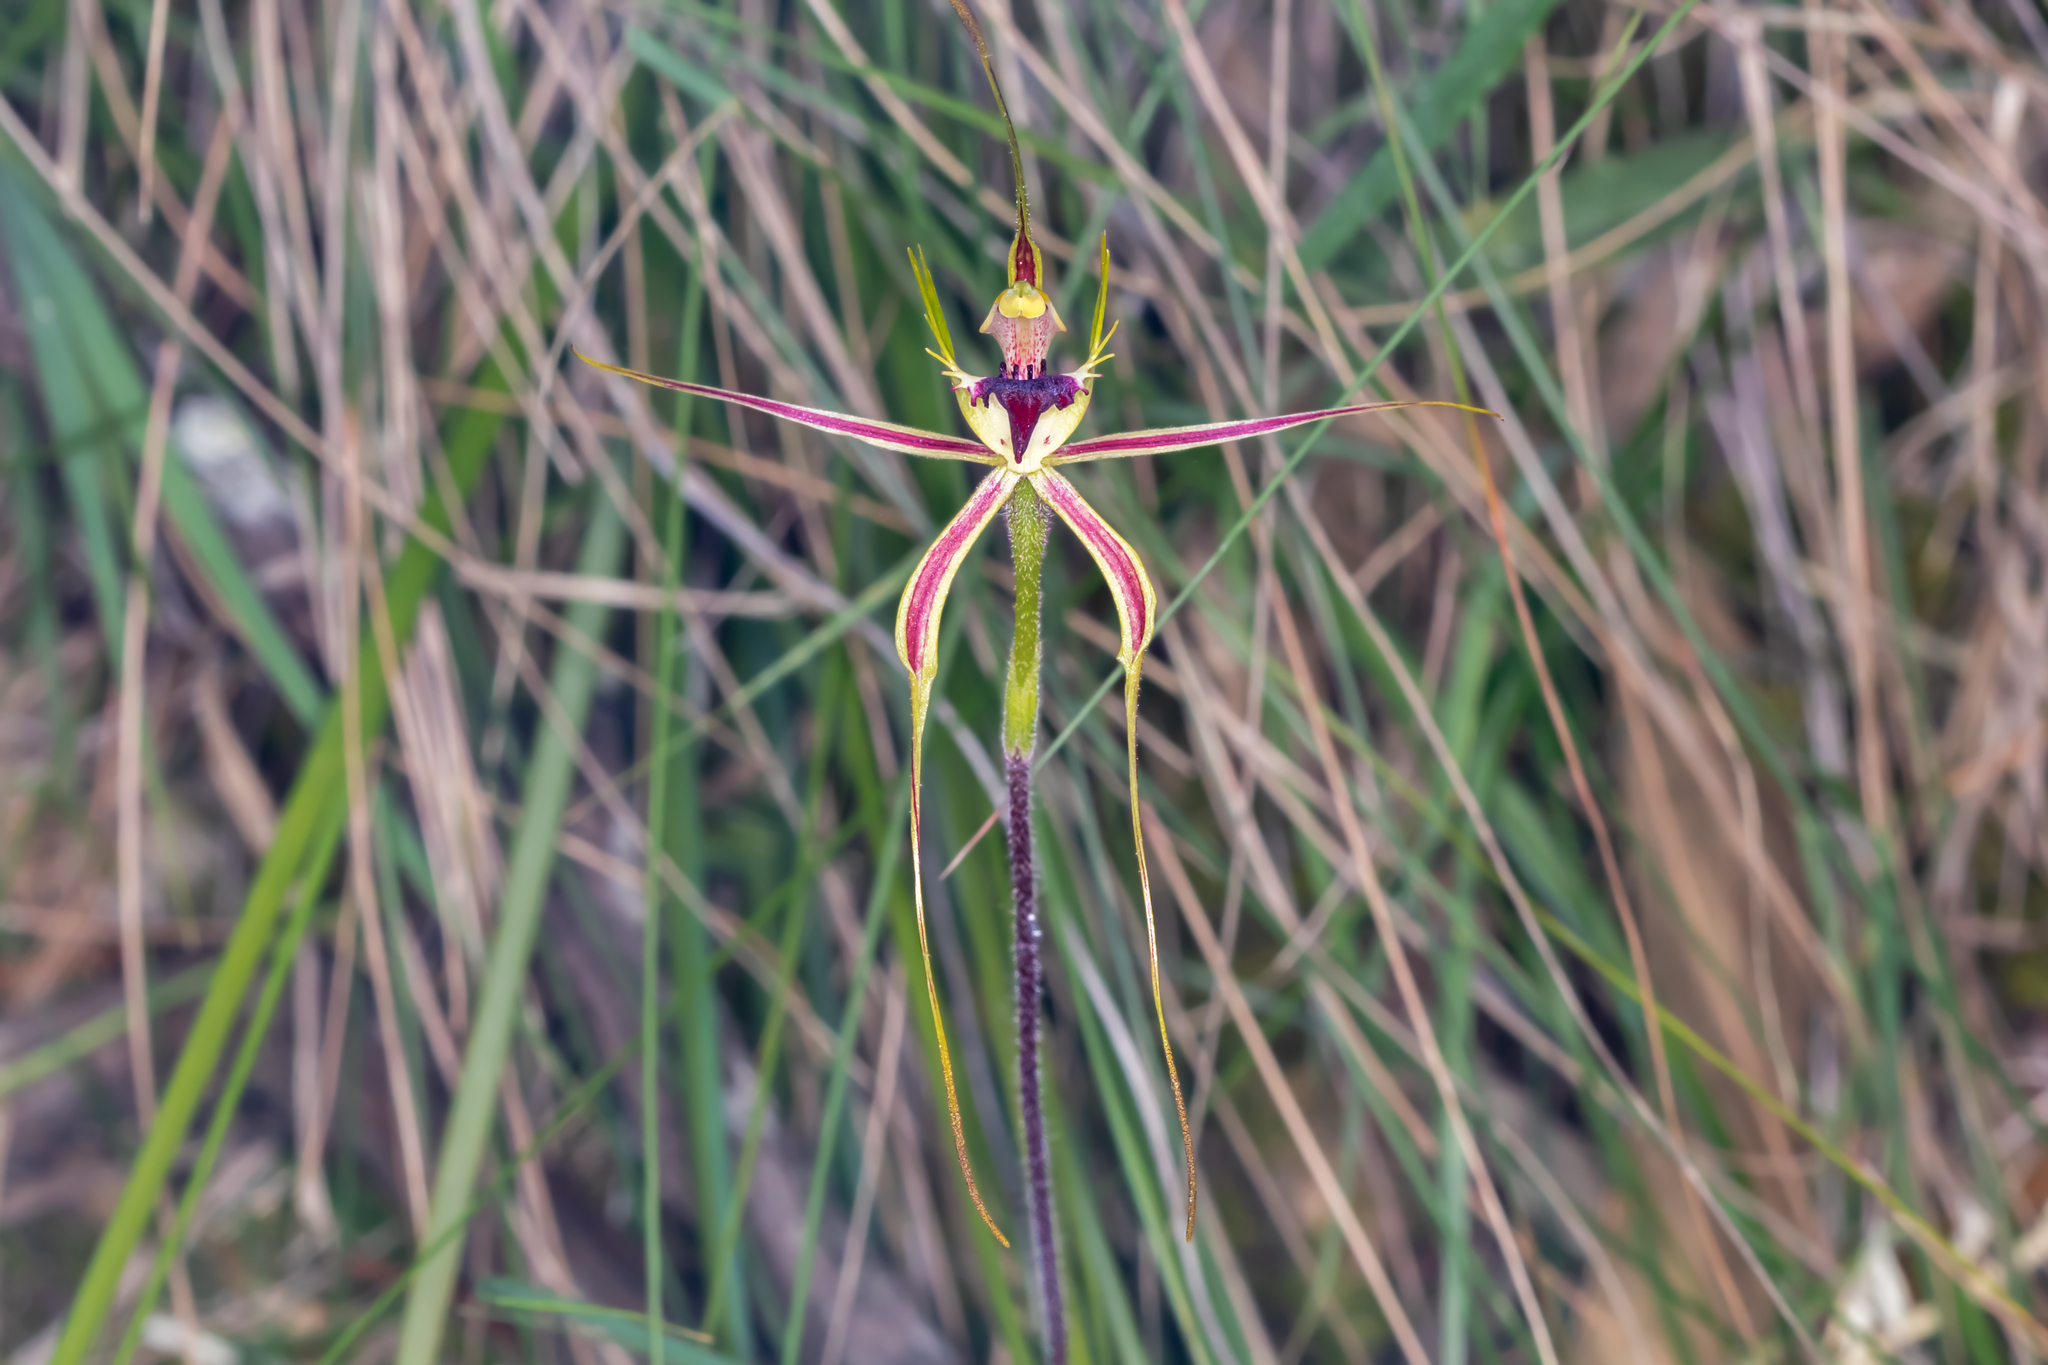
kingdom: Plantae
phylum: Tracheophyta
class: Liliopsida
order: Asparagales
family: Orchidaceae
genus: Caladenia
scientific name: Caladenia tentaculata
